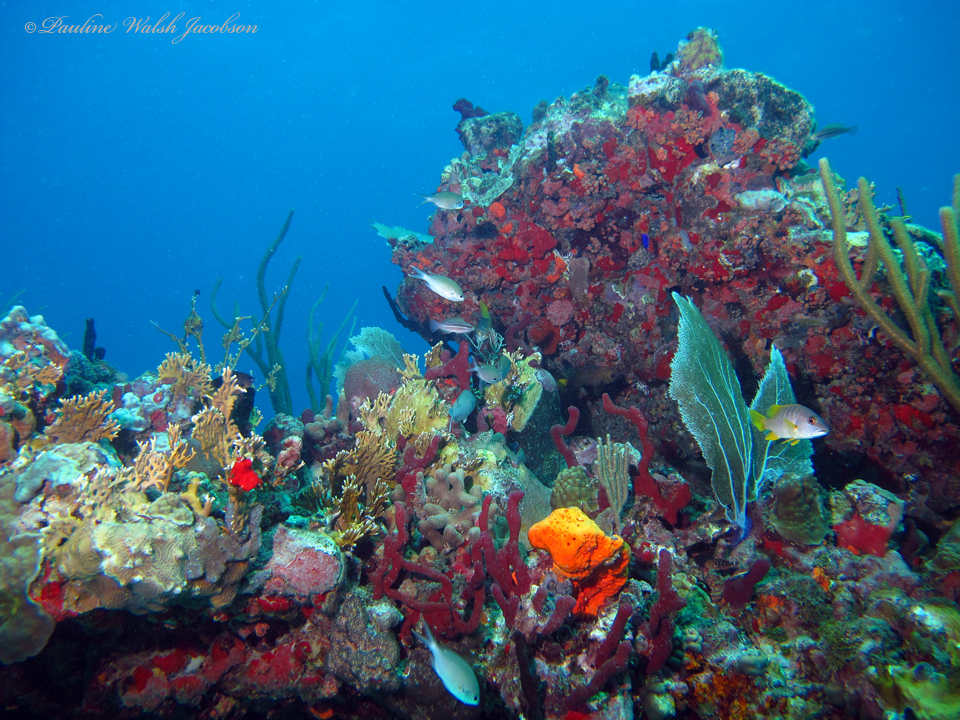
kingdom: Animalia
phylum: Chordata
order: Perciformes
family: Lutjanidae
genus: Lutjanus
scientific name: Lutjanus apodus
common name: Schoolmaster
